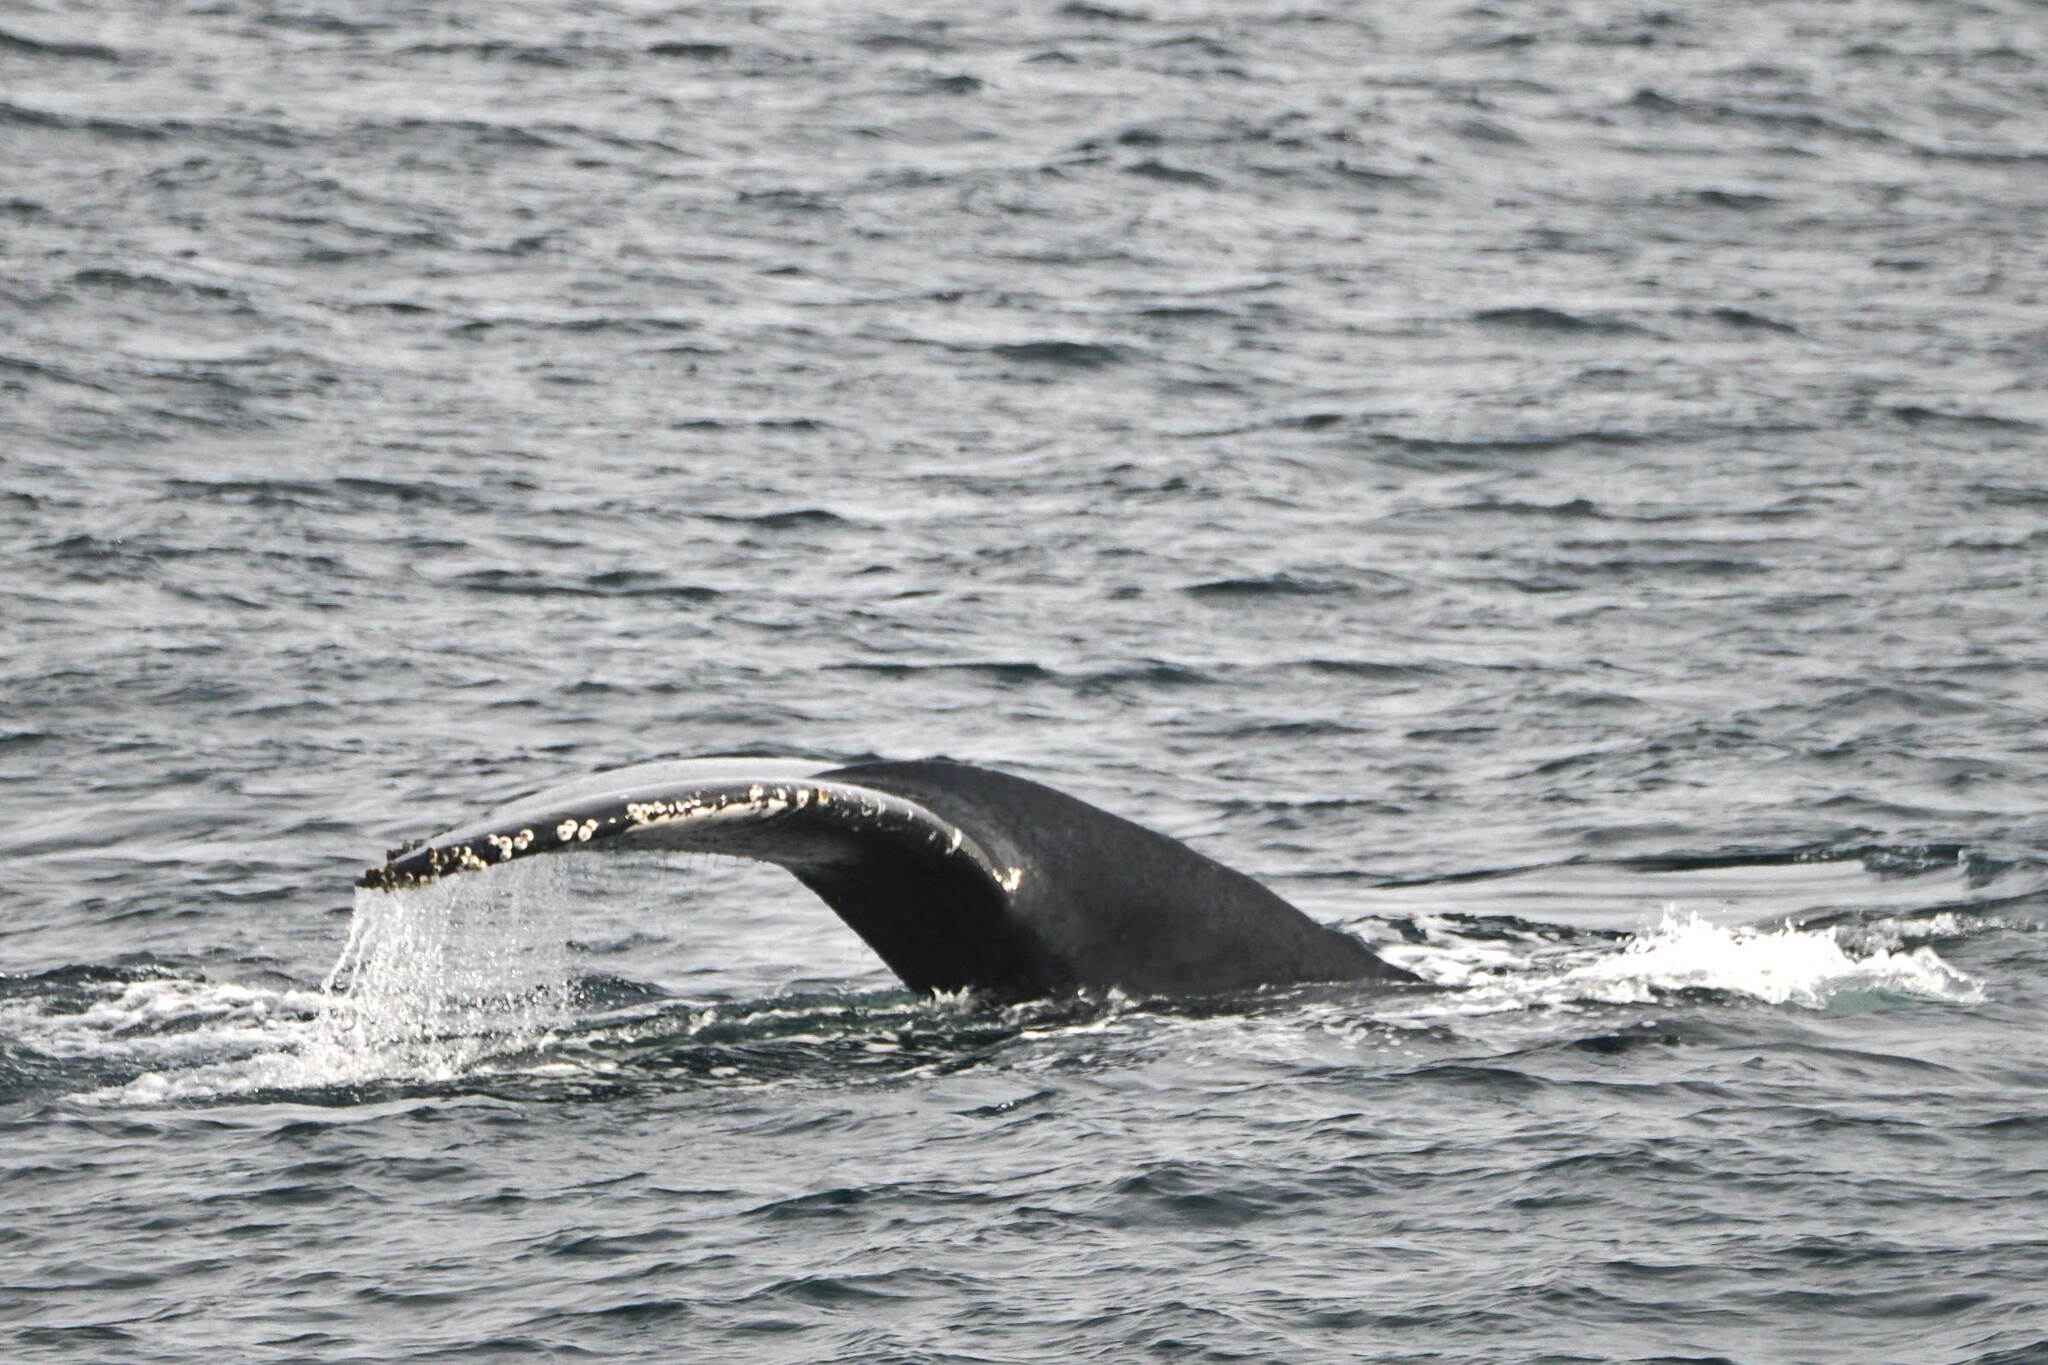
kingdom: Animalia
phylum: Chordata
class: Mammalia
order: Cetacea
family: Balaenopteridae
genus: Megaptera
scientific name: Megaptera novaeangliae
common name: Humpback whale
